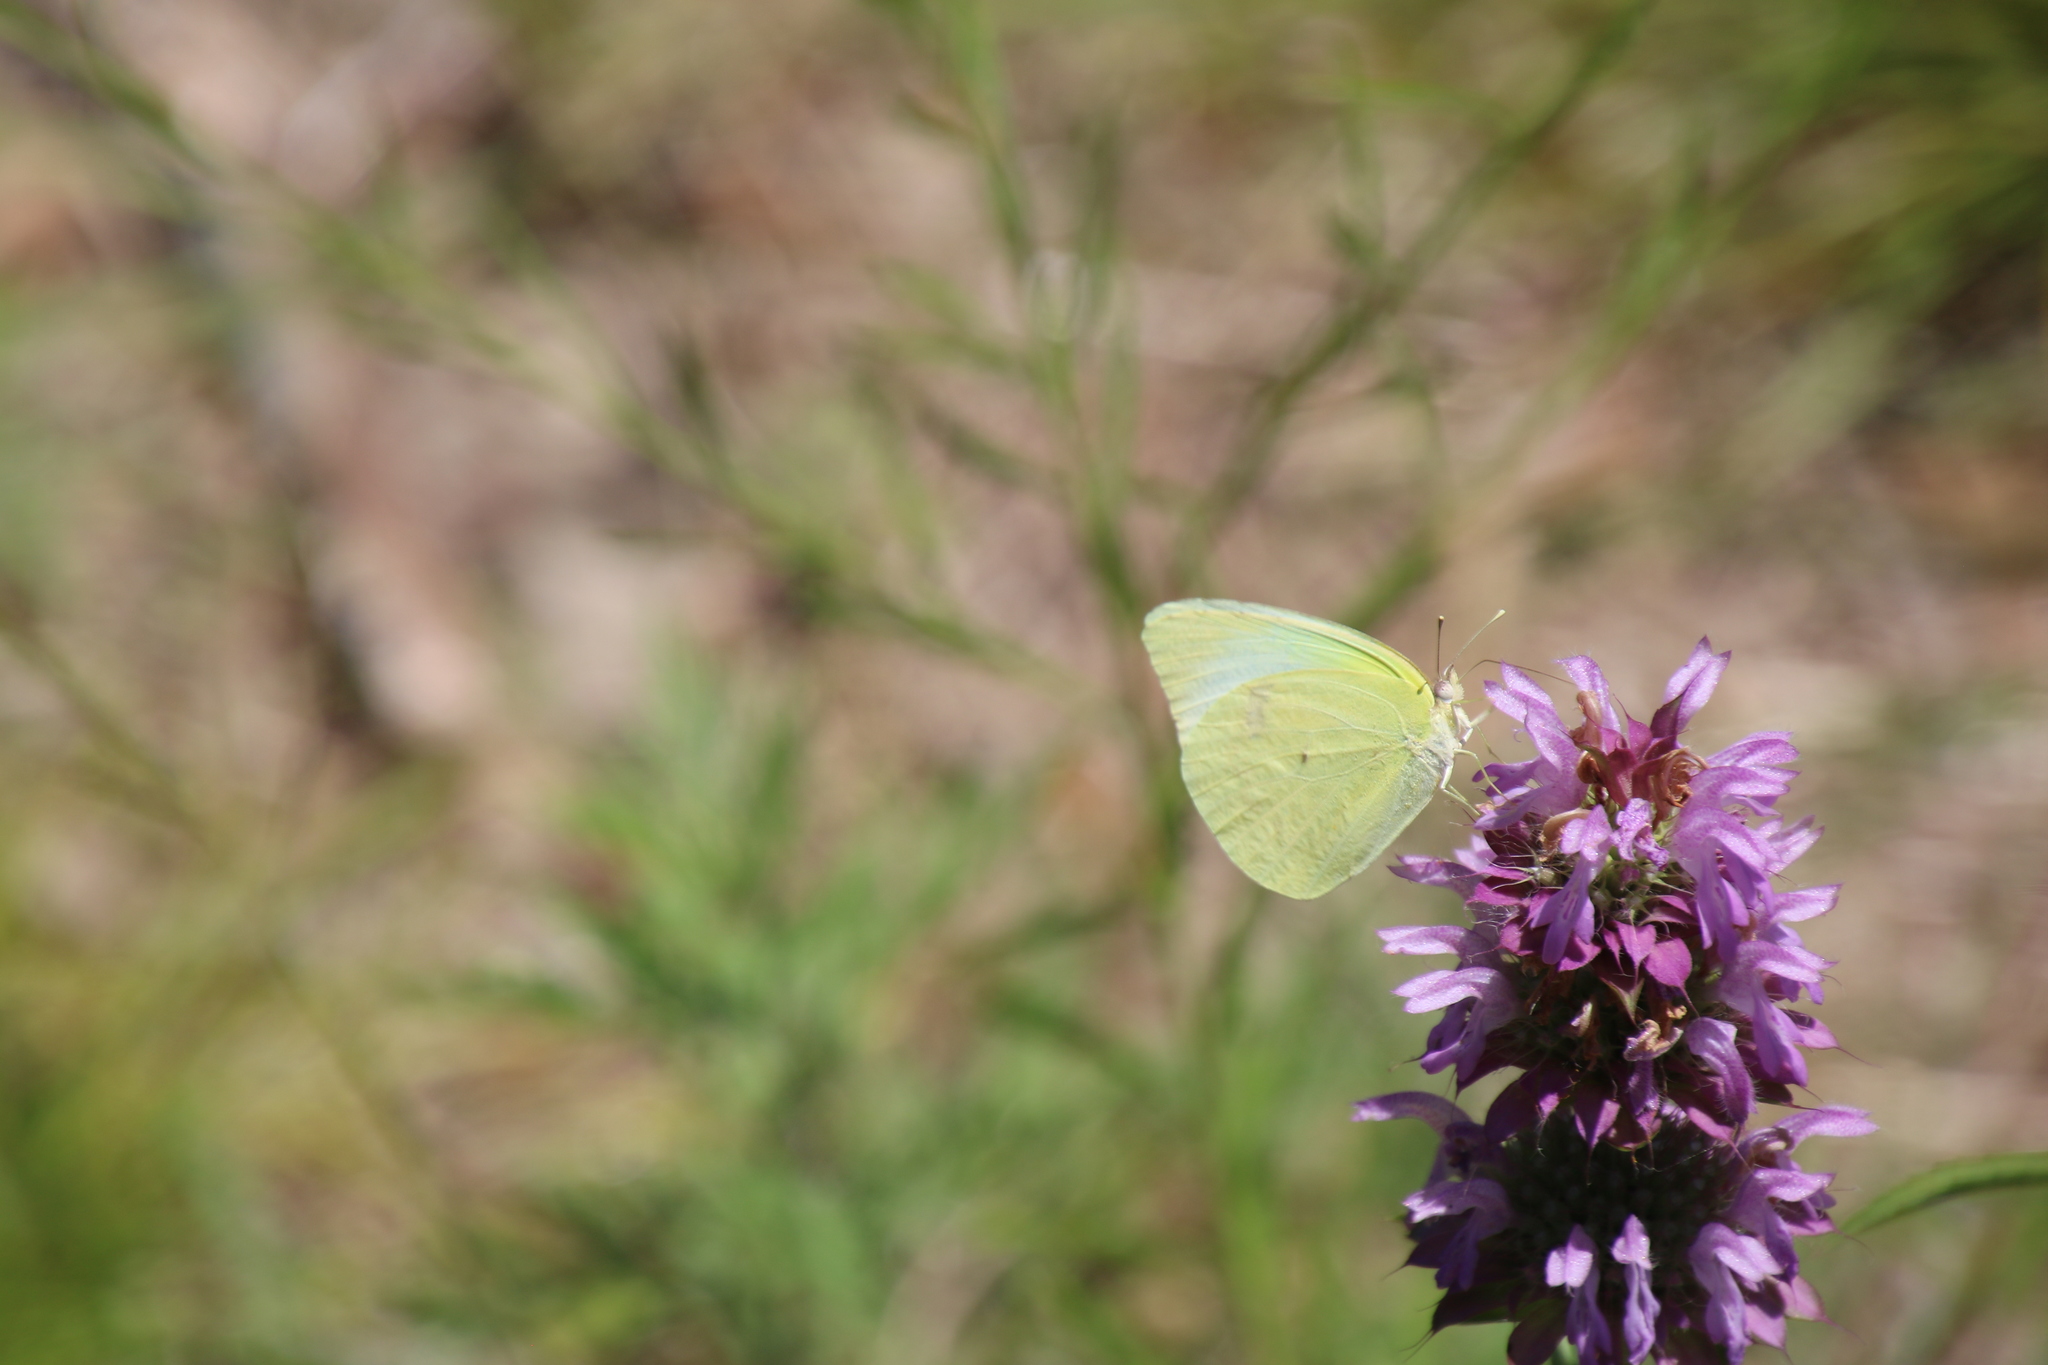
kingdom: Animalia
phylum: Arthropoda
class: Insecta
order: Lepidoptera
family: Pieridae
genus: Kricogonia
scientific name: Kricogonia lyside
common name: Guayacan sulphur,
